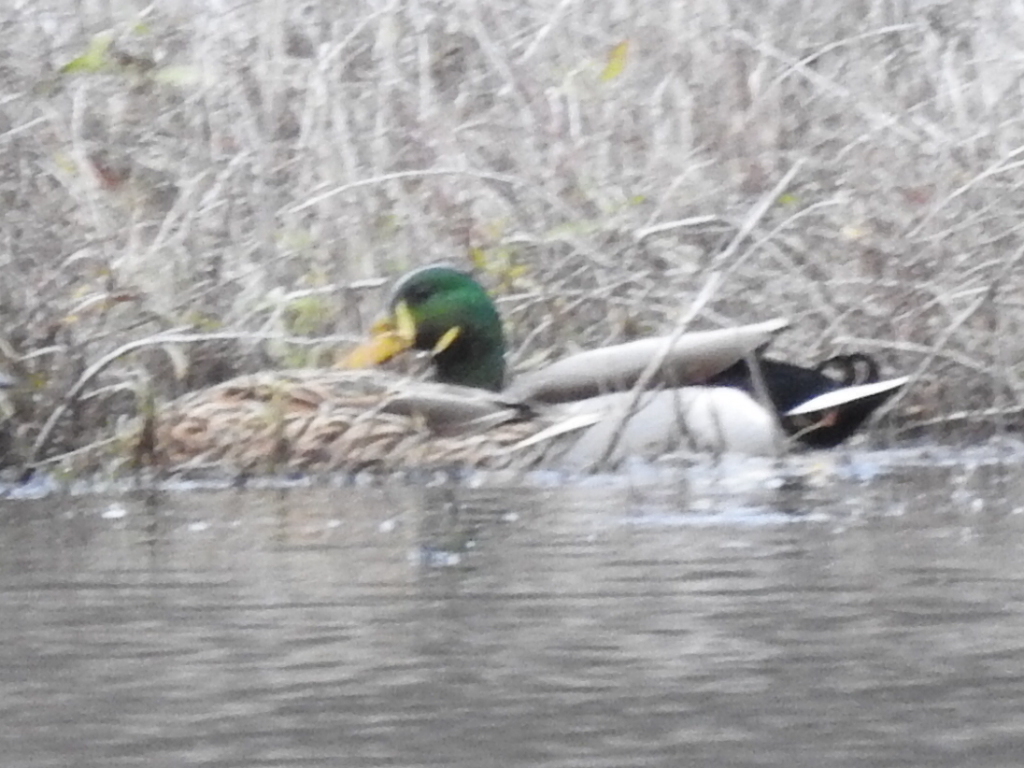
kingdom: Animalia
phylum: Chordata
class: Aves
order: Anseriformes
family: Anatidae
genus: Anas
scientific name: Anas platyrhynchos
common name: Mallard
